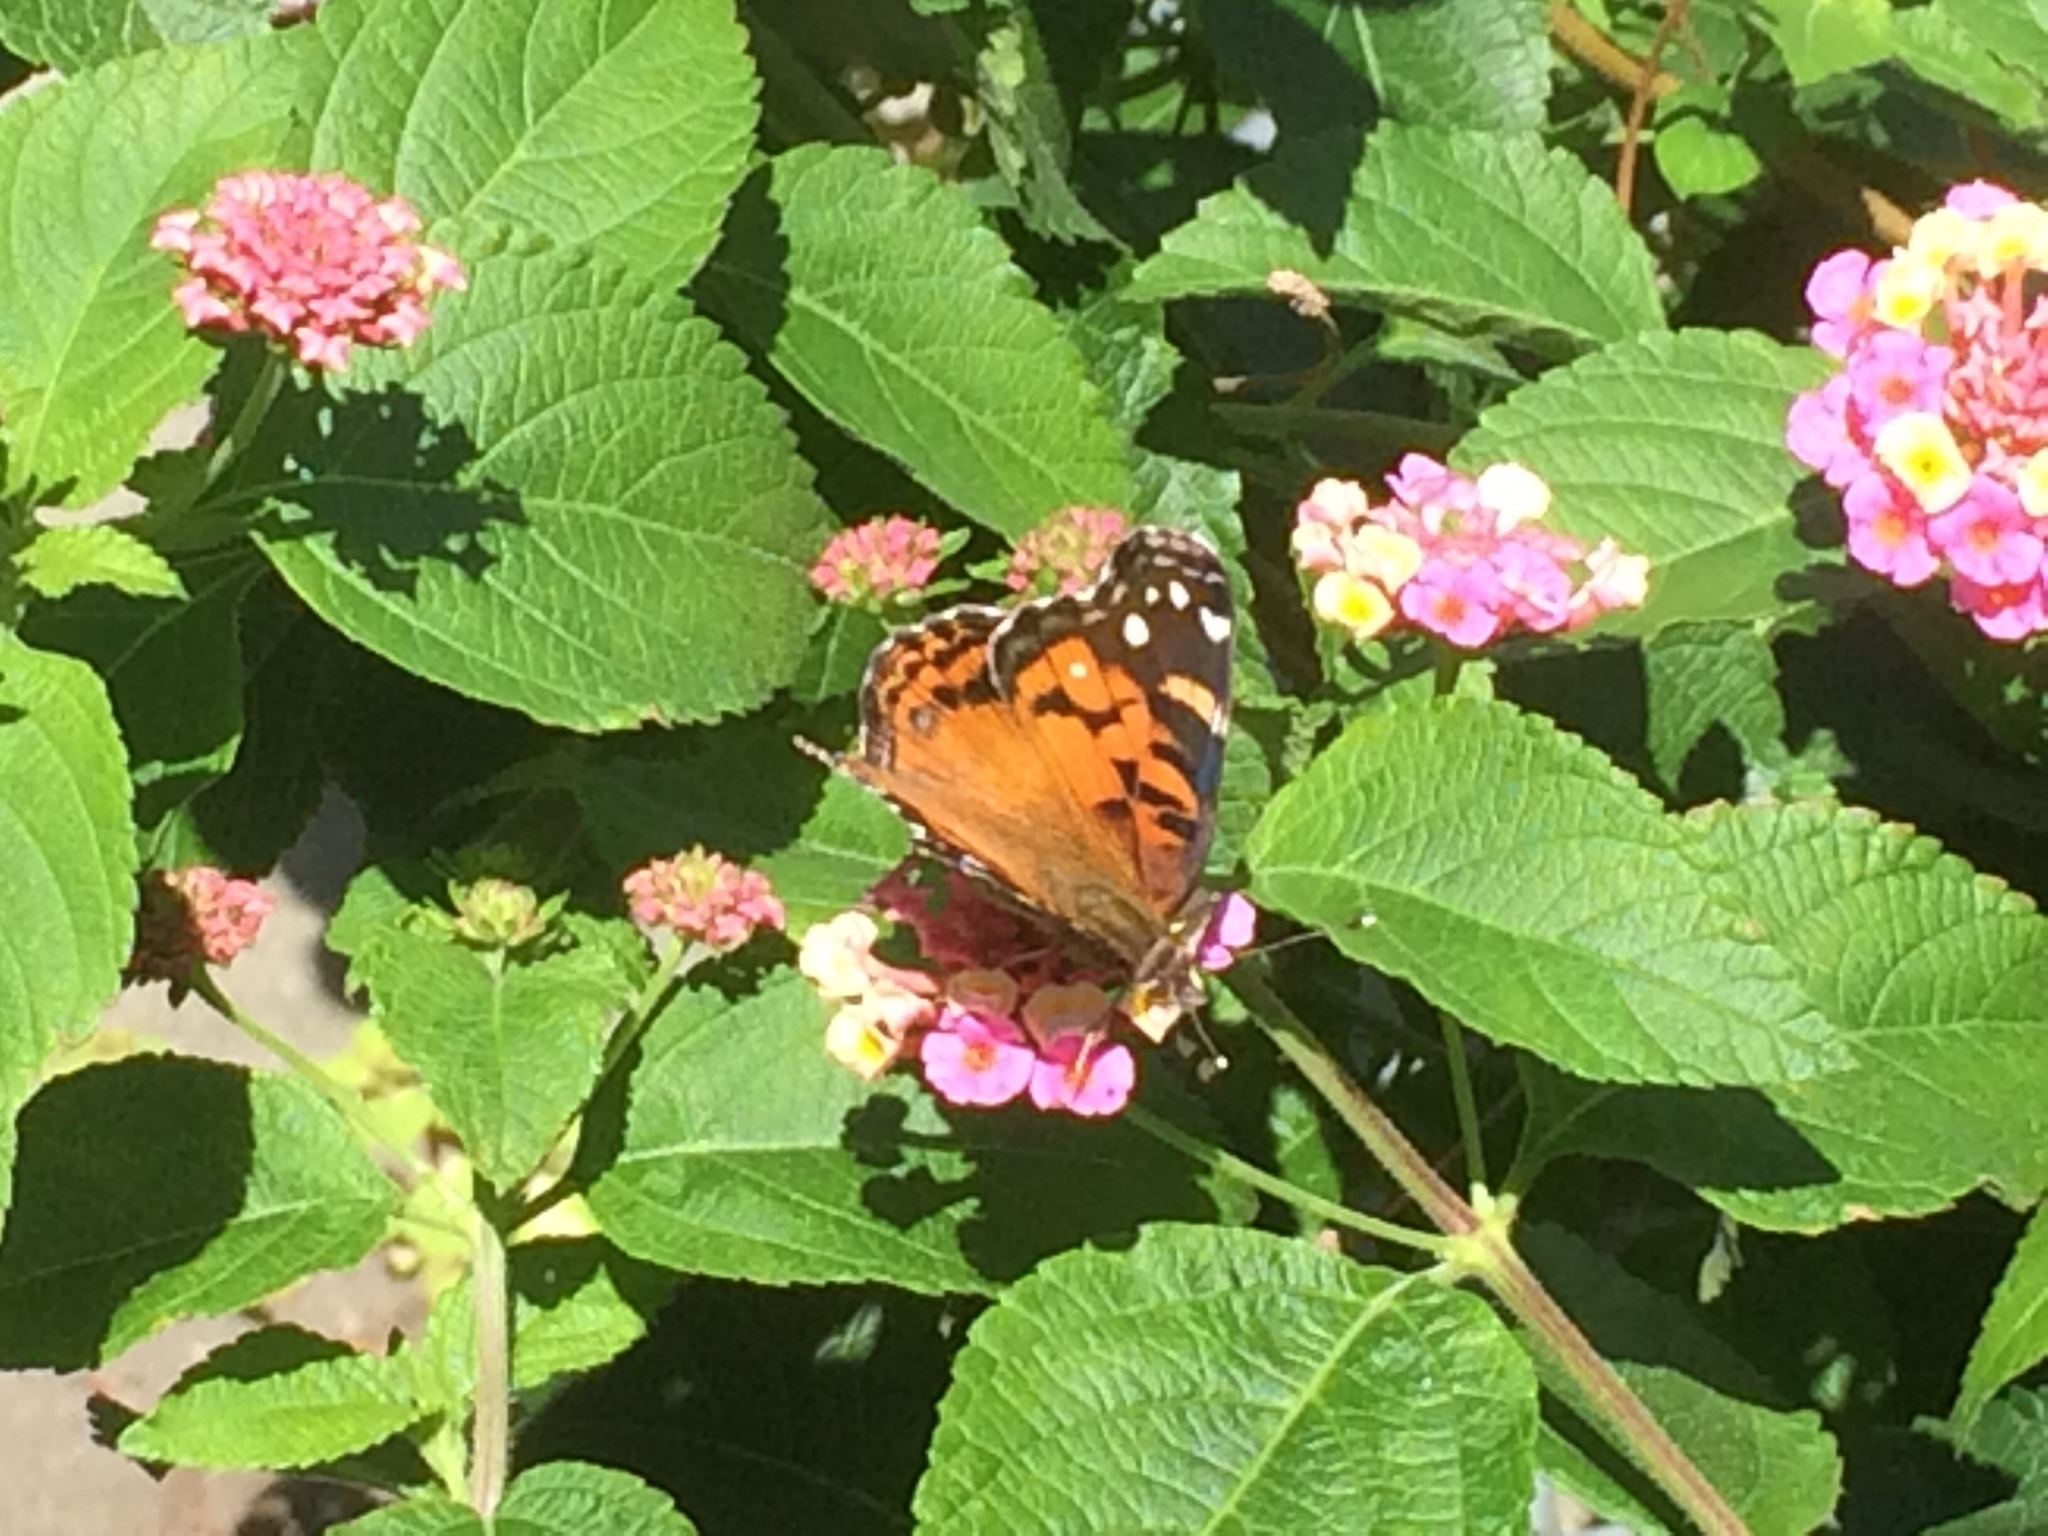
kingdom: Animalia
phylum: Arthropoda
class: Insecta
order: Lepidoptera
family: Nymphalidae
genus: Vanessa
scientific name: Vanessa virginiensis
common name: American lady
